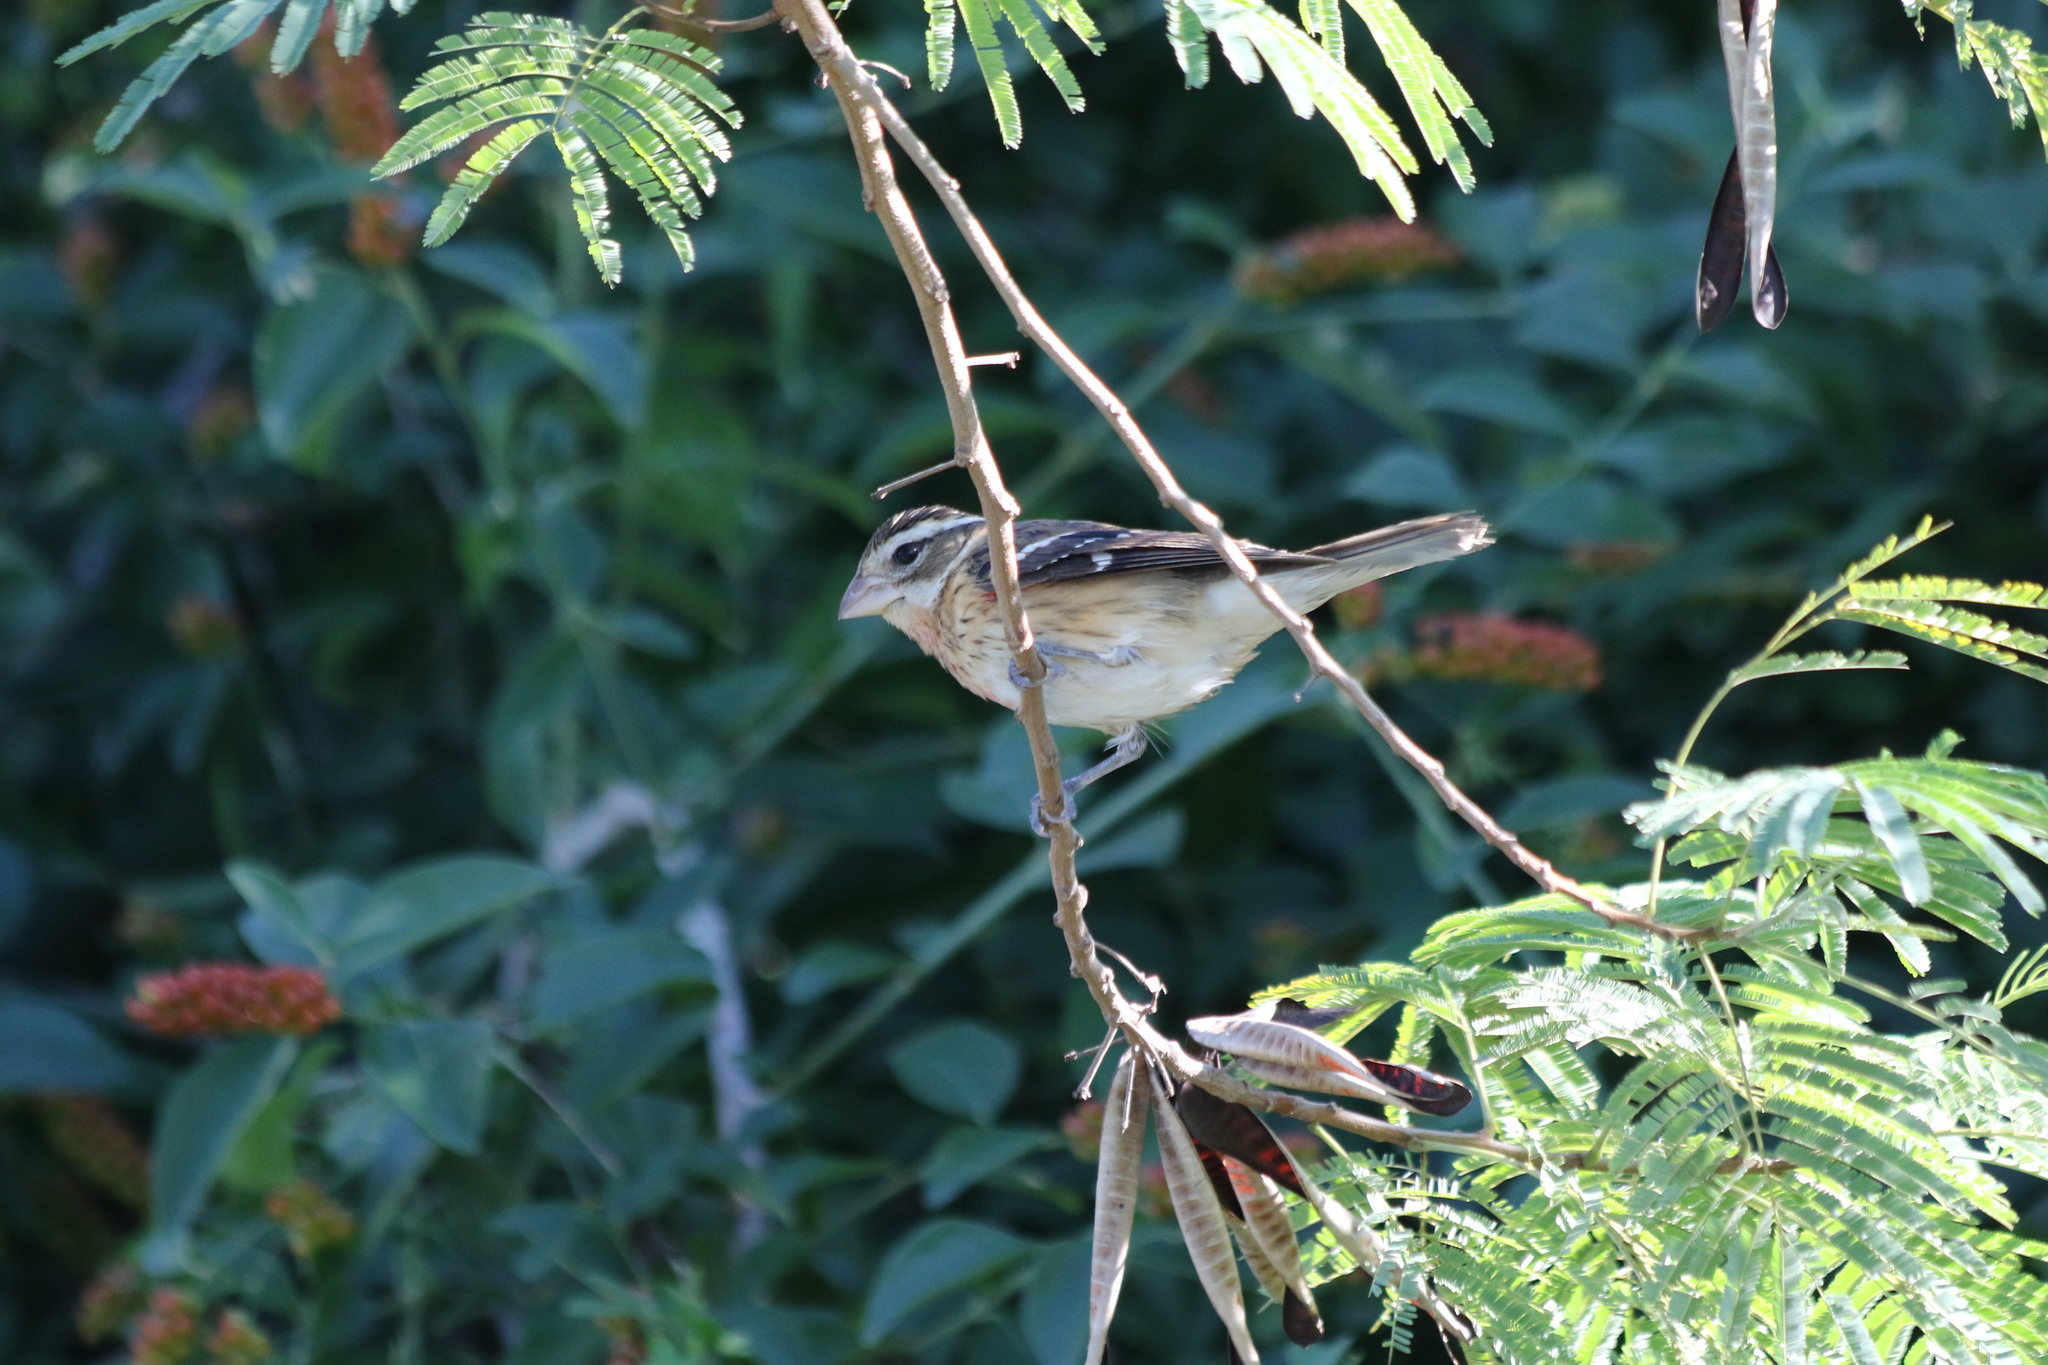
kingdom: Animalia
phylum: Chordata
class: Aves
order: Passeriformes
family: Cardinalidae
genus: Pheucticus
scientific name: Pheucticus ludovicianus
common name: Rose-breasted grosbeak
